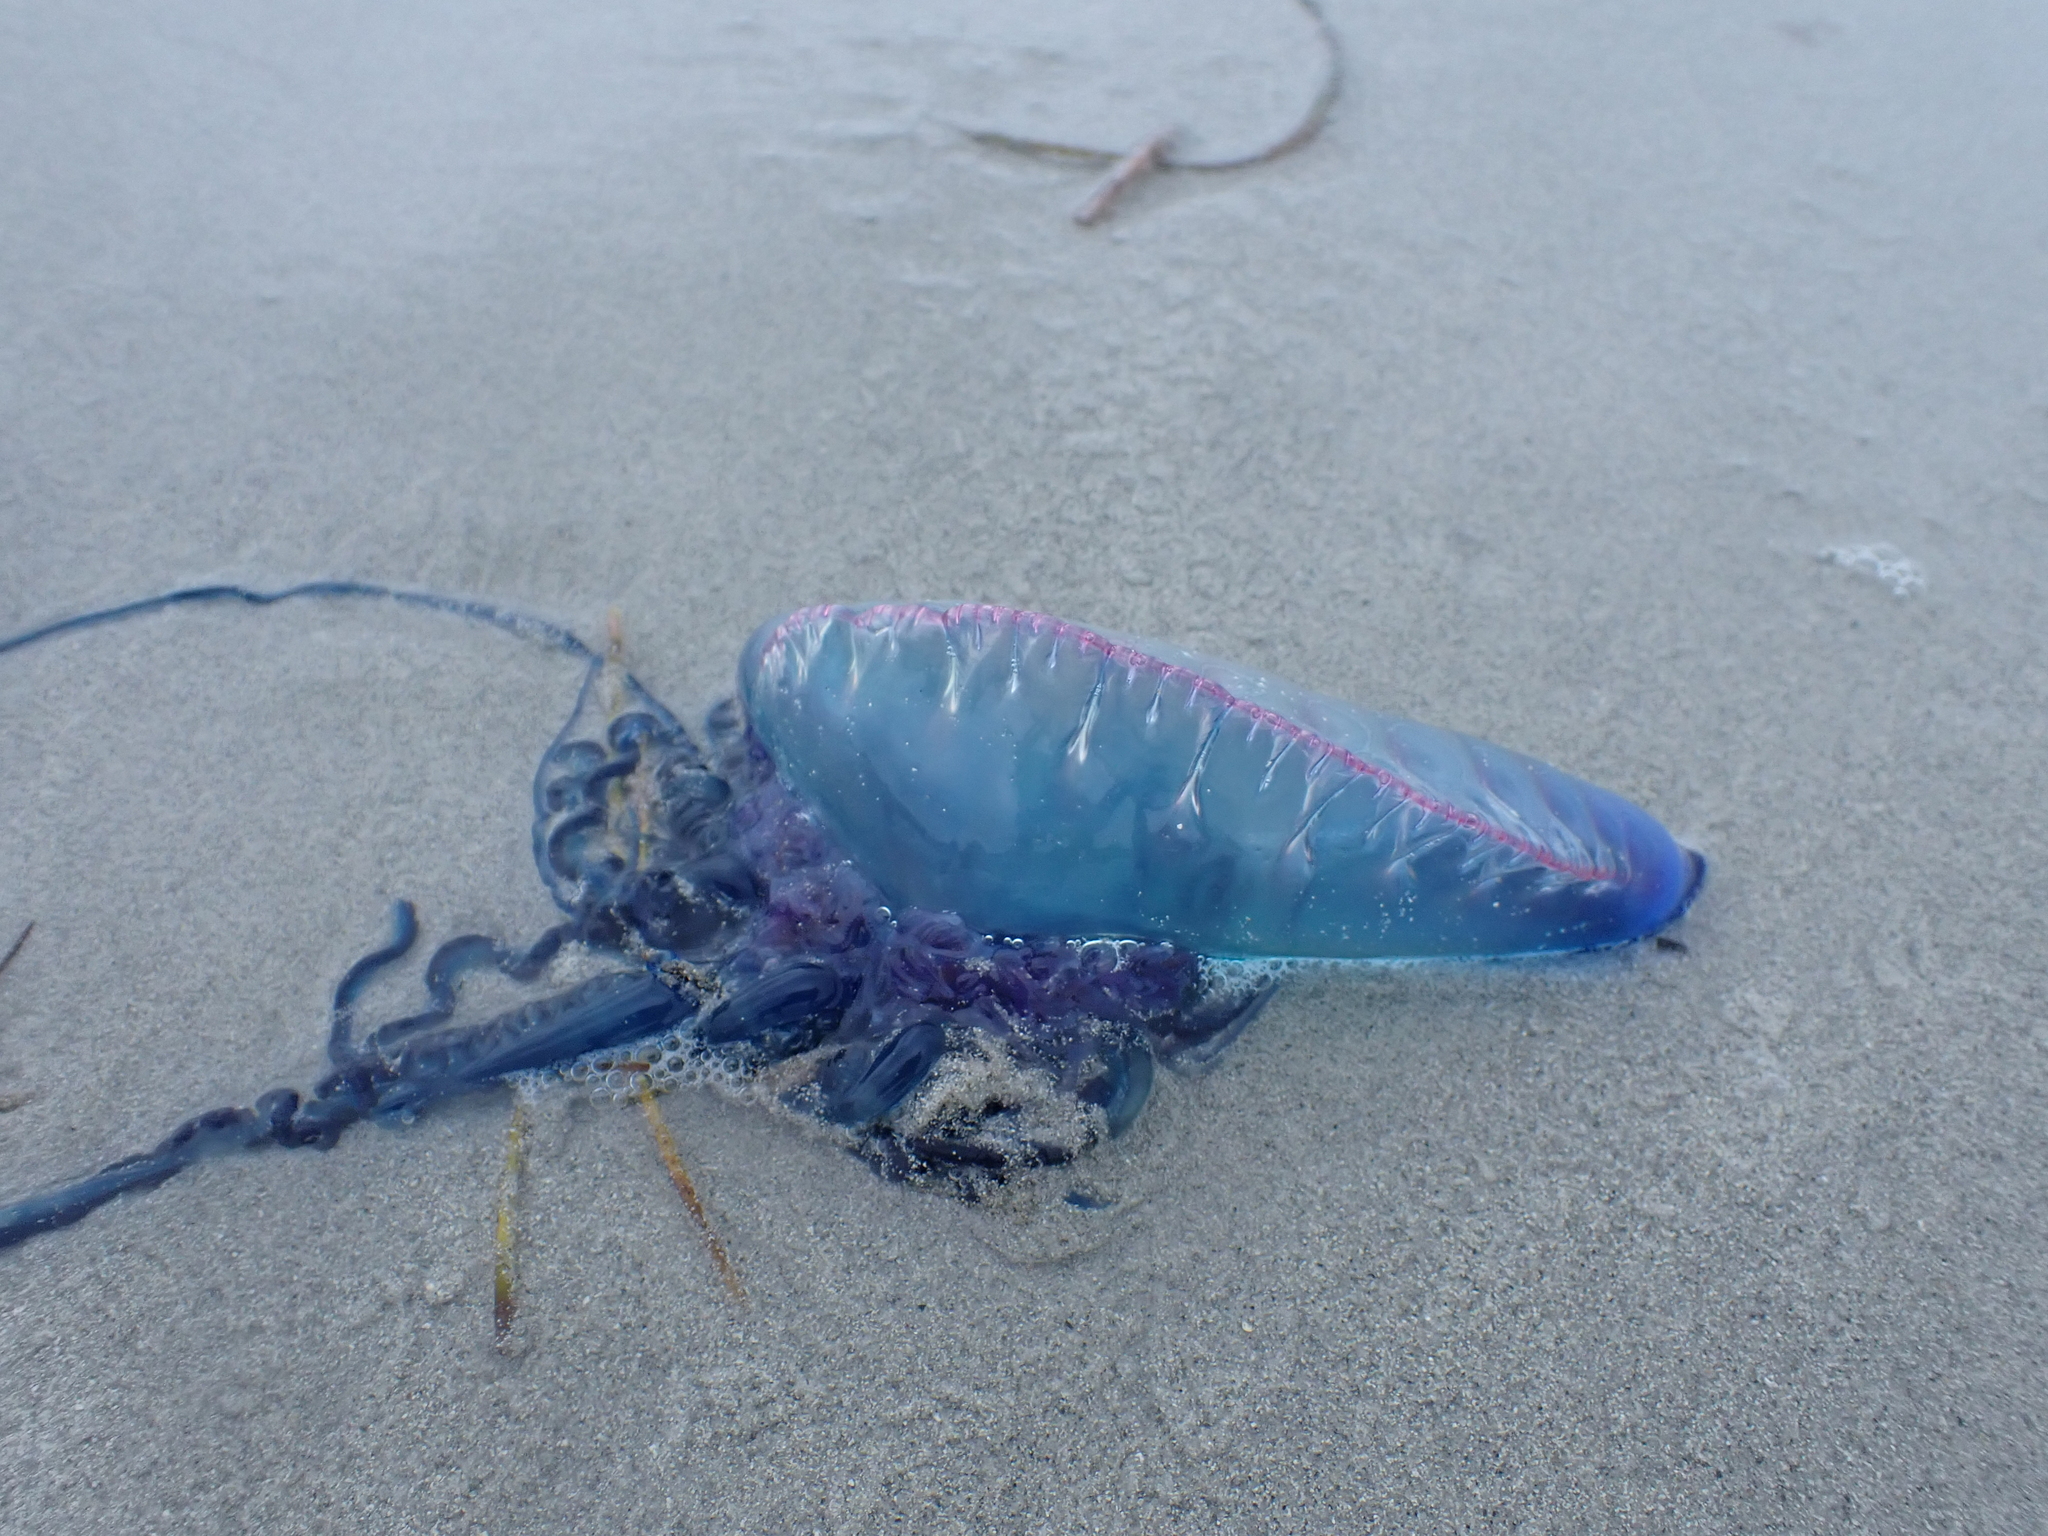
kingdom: Animalia
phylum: Cnidaria
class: Hydrozoa
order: Siphonophorae
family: Physaliidae
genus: Physalia
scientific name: Physalia physalis
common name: Portuguese man-of-war
